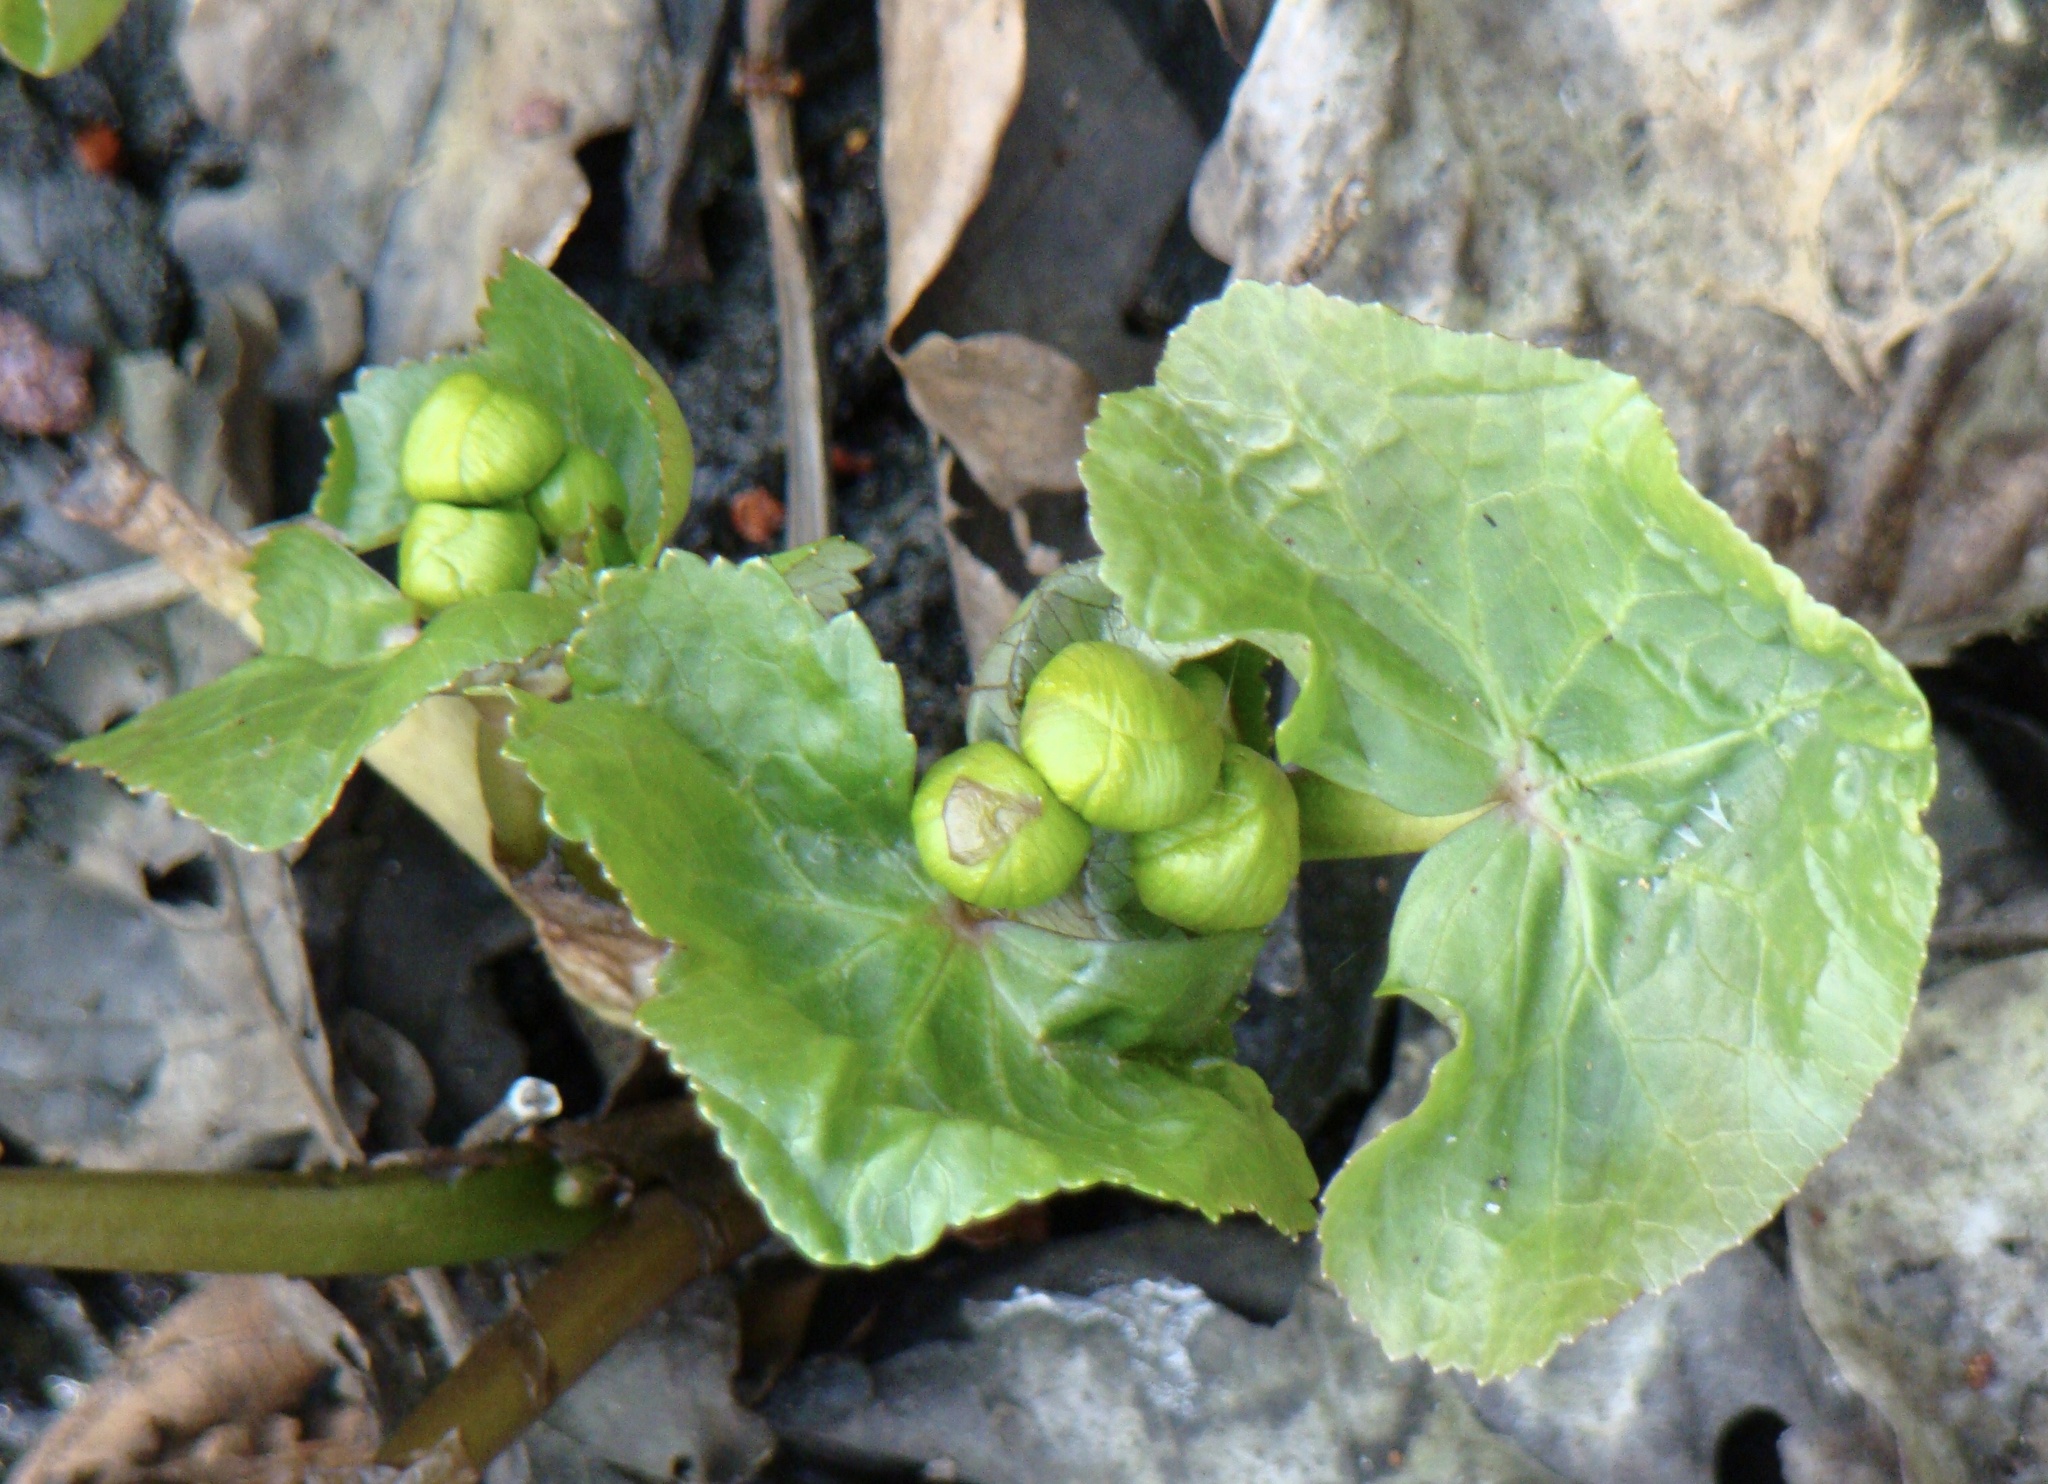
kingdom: Plantae
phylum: Tracheophyta
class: Magnoliopsida
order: Ranunculales
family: Ranunculaceae
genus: Caltha
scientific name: Caltha palustris
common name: Marsh marigold
